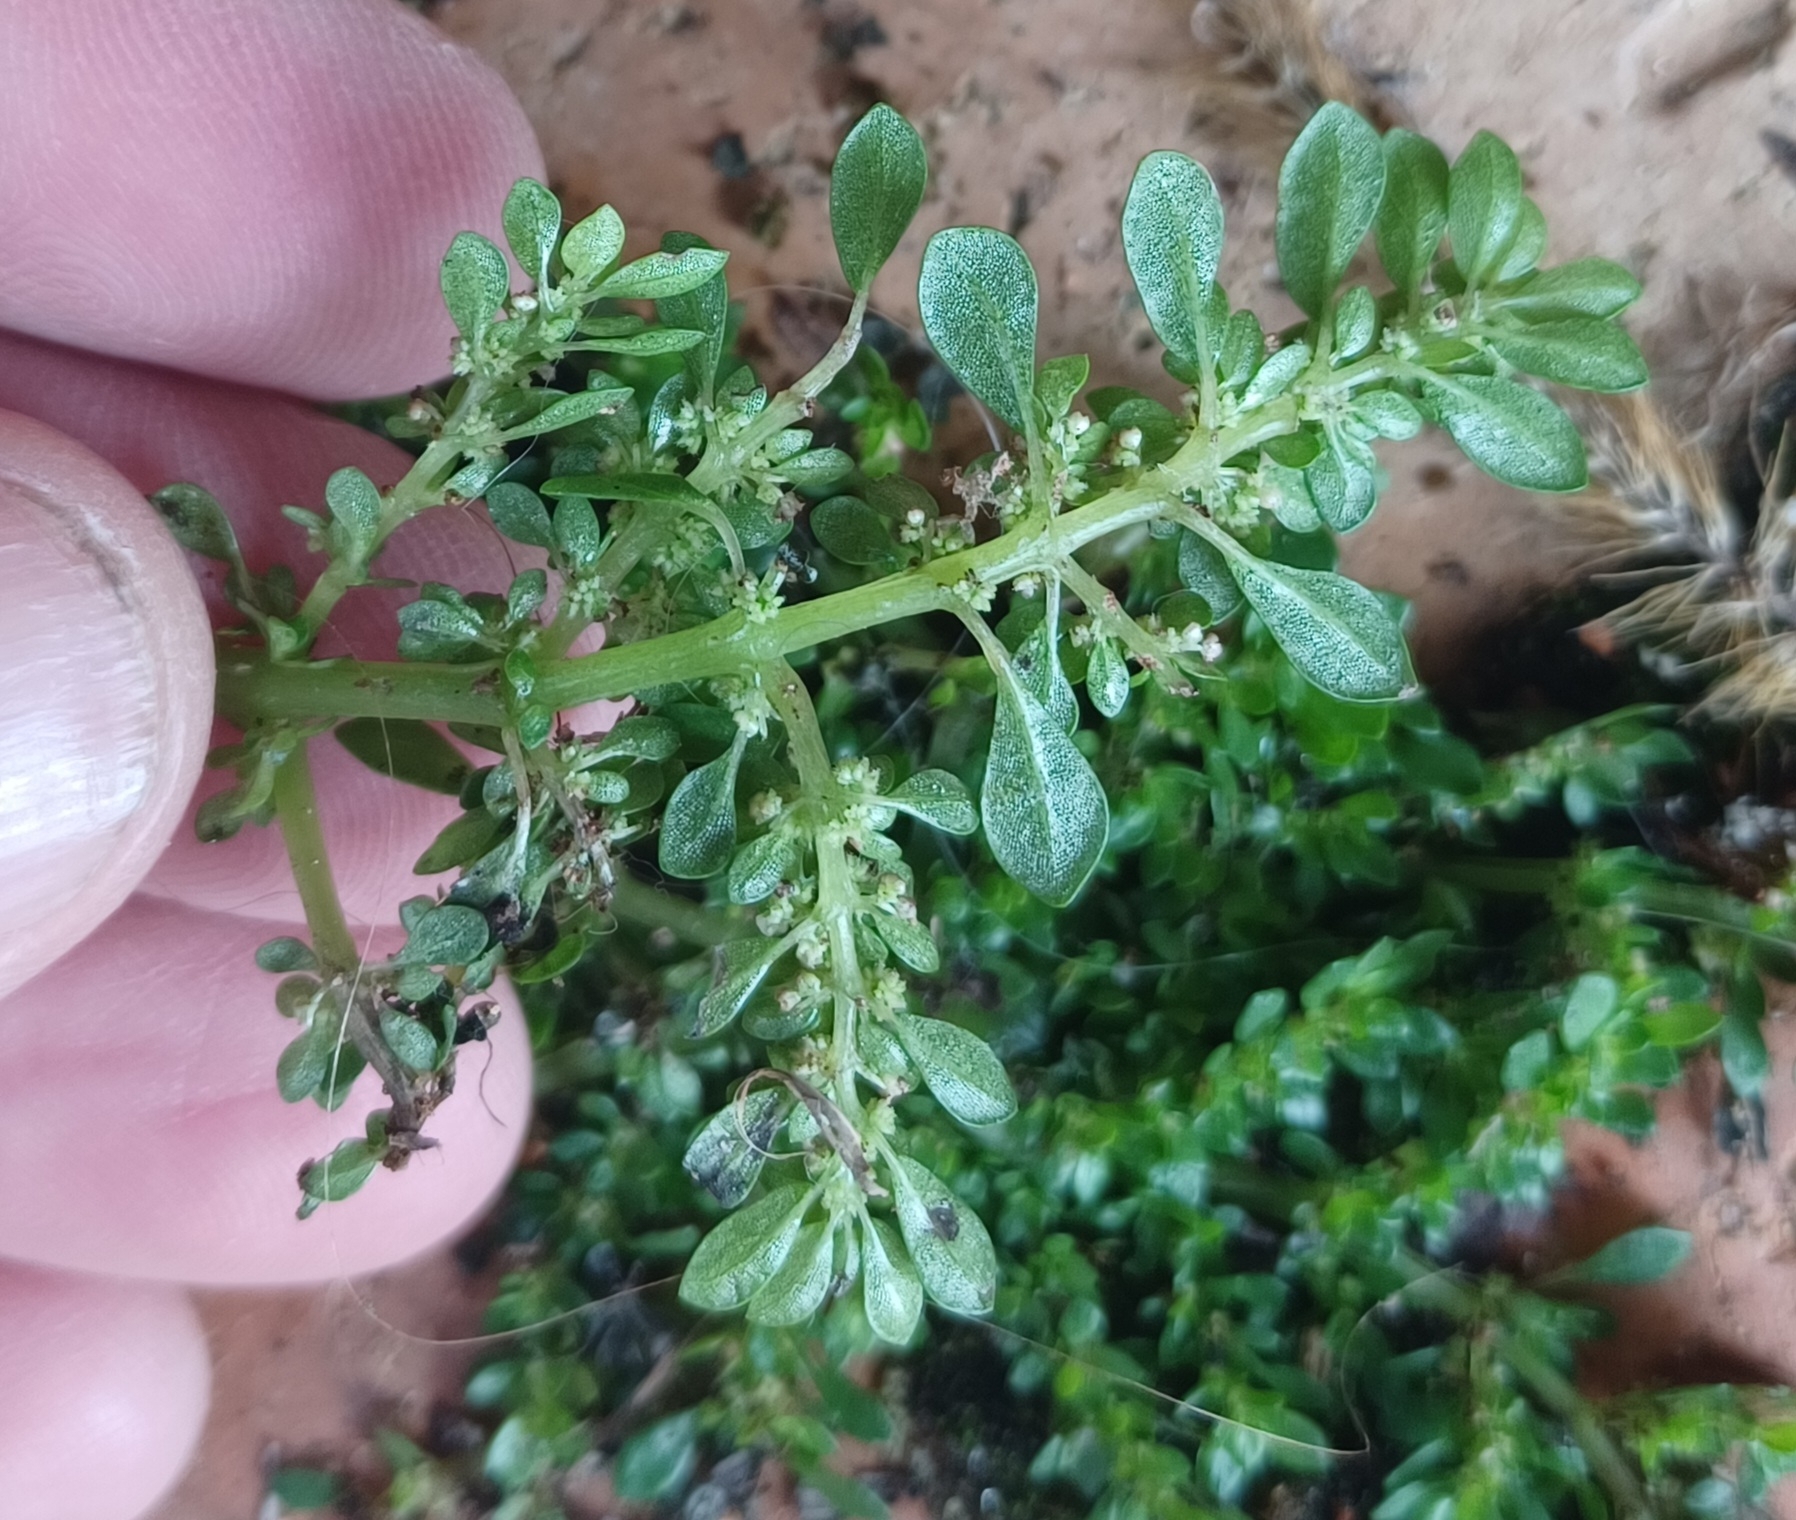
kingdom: Plantae
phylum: Tracheophyta
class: Magnoliopsida
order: Rosales
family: Urticaceae
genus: Pilea
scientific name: Pilea microphylla
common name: Artillery-plant
